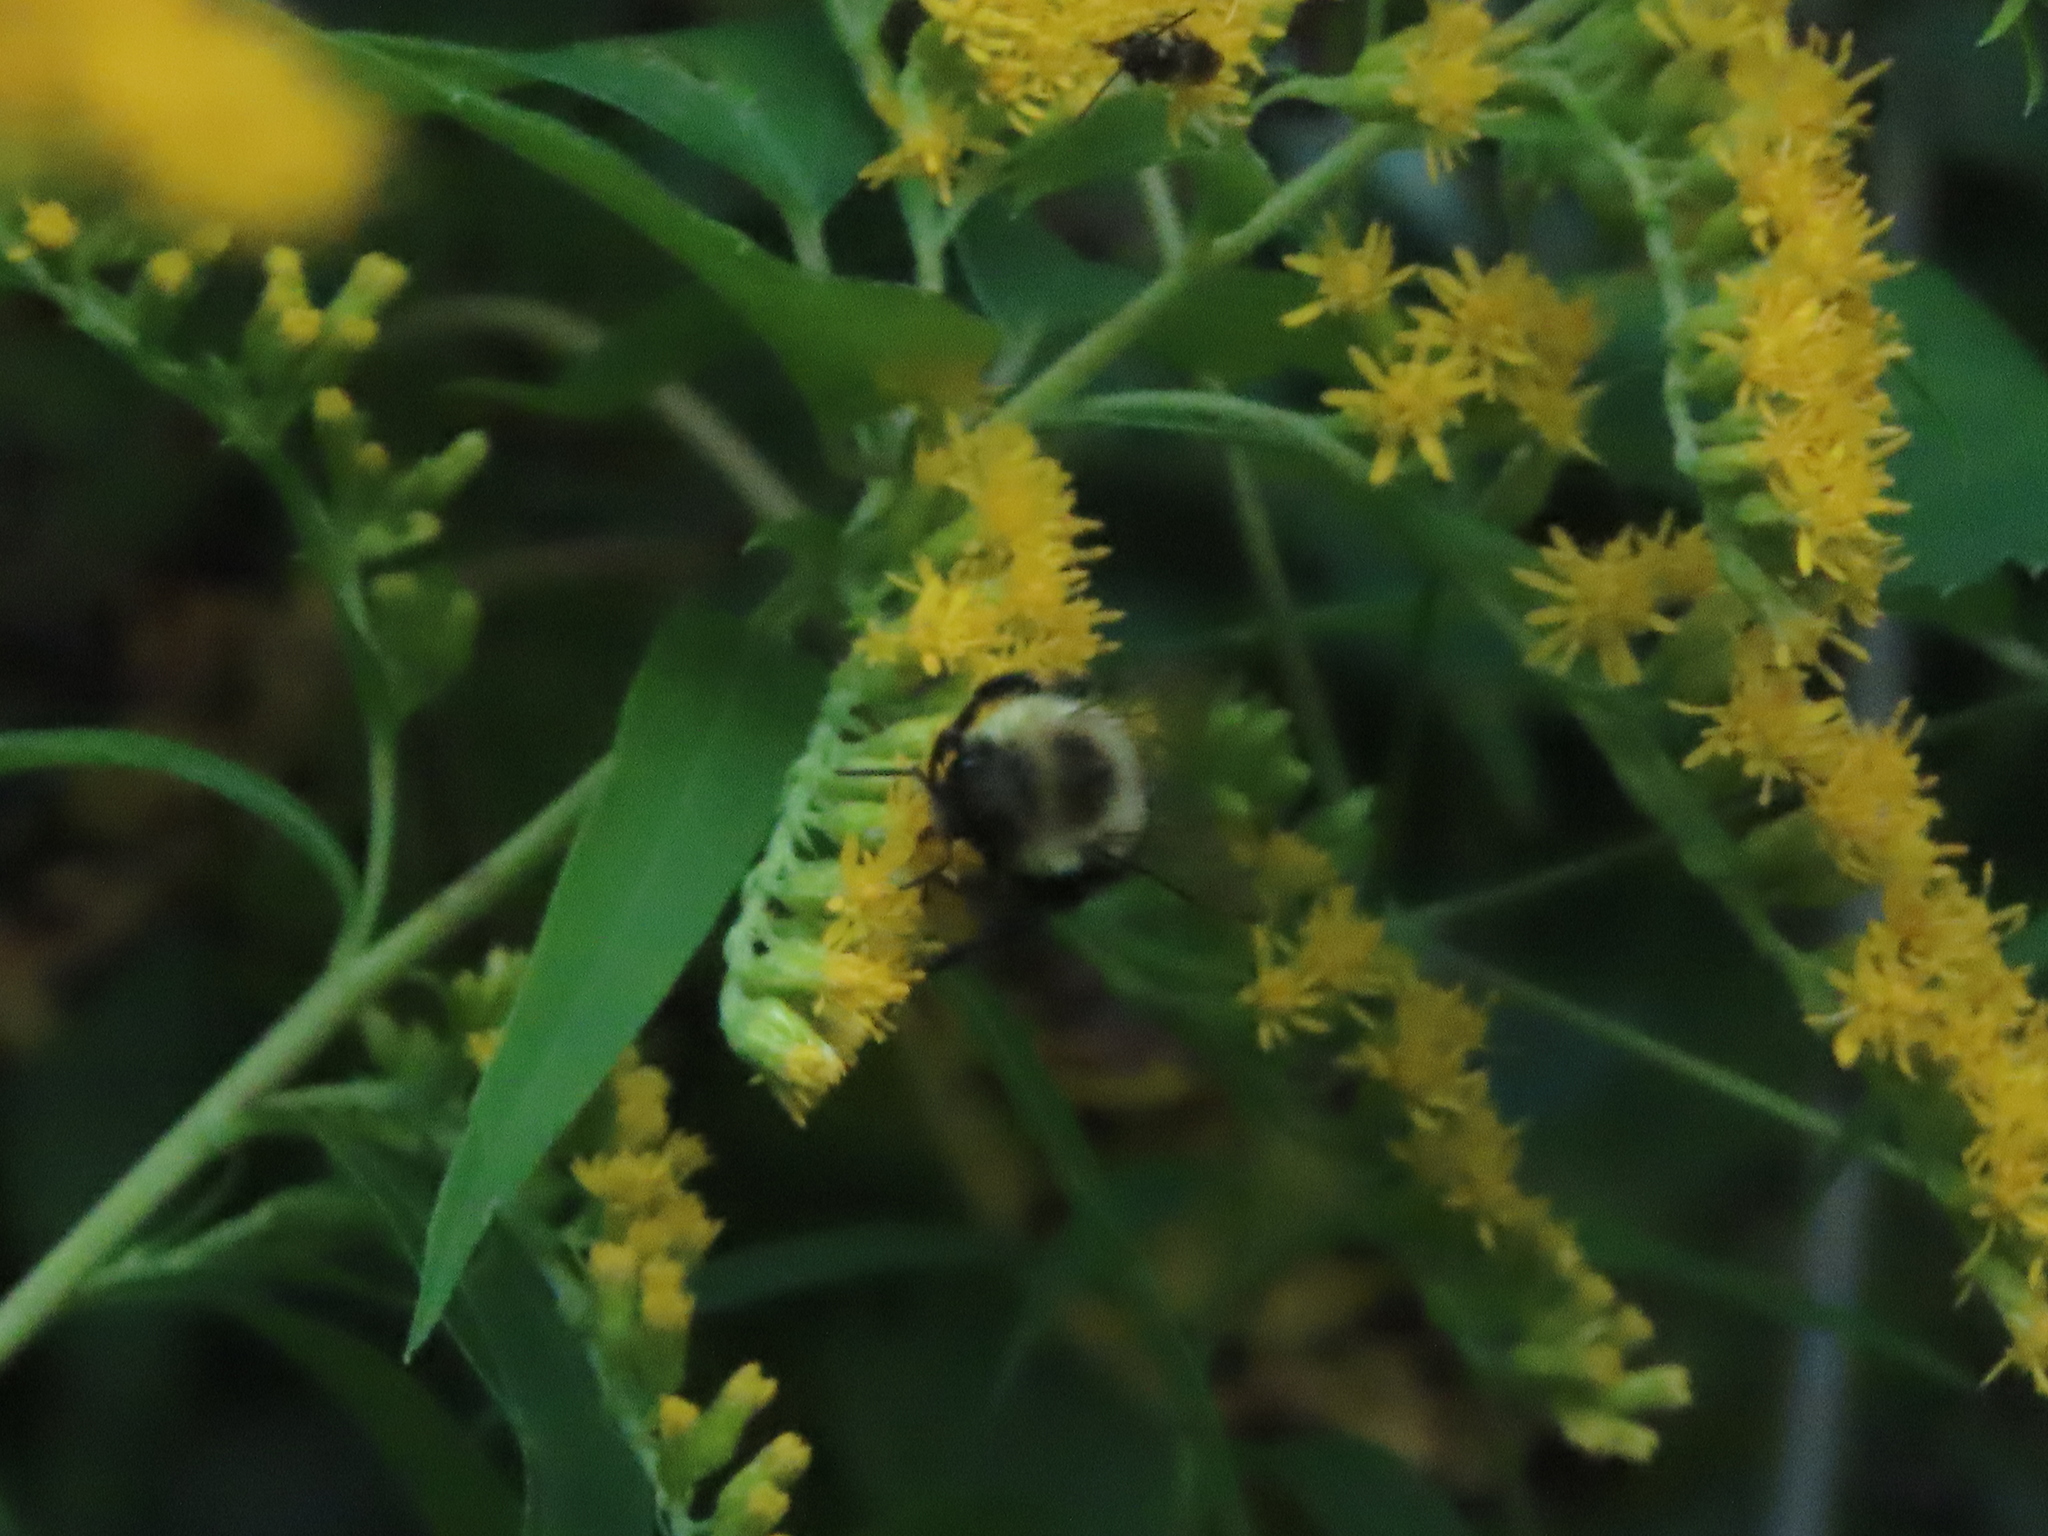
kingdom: Animalia
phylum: Arthropoda
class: Insecta
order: Hymenoptera
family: Apidae
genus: Bombus
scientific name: Bombus impatiens
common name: Common eastern bumble bee
